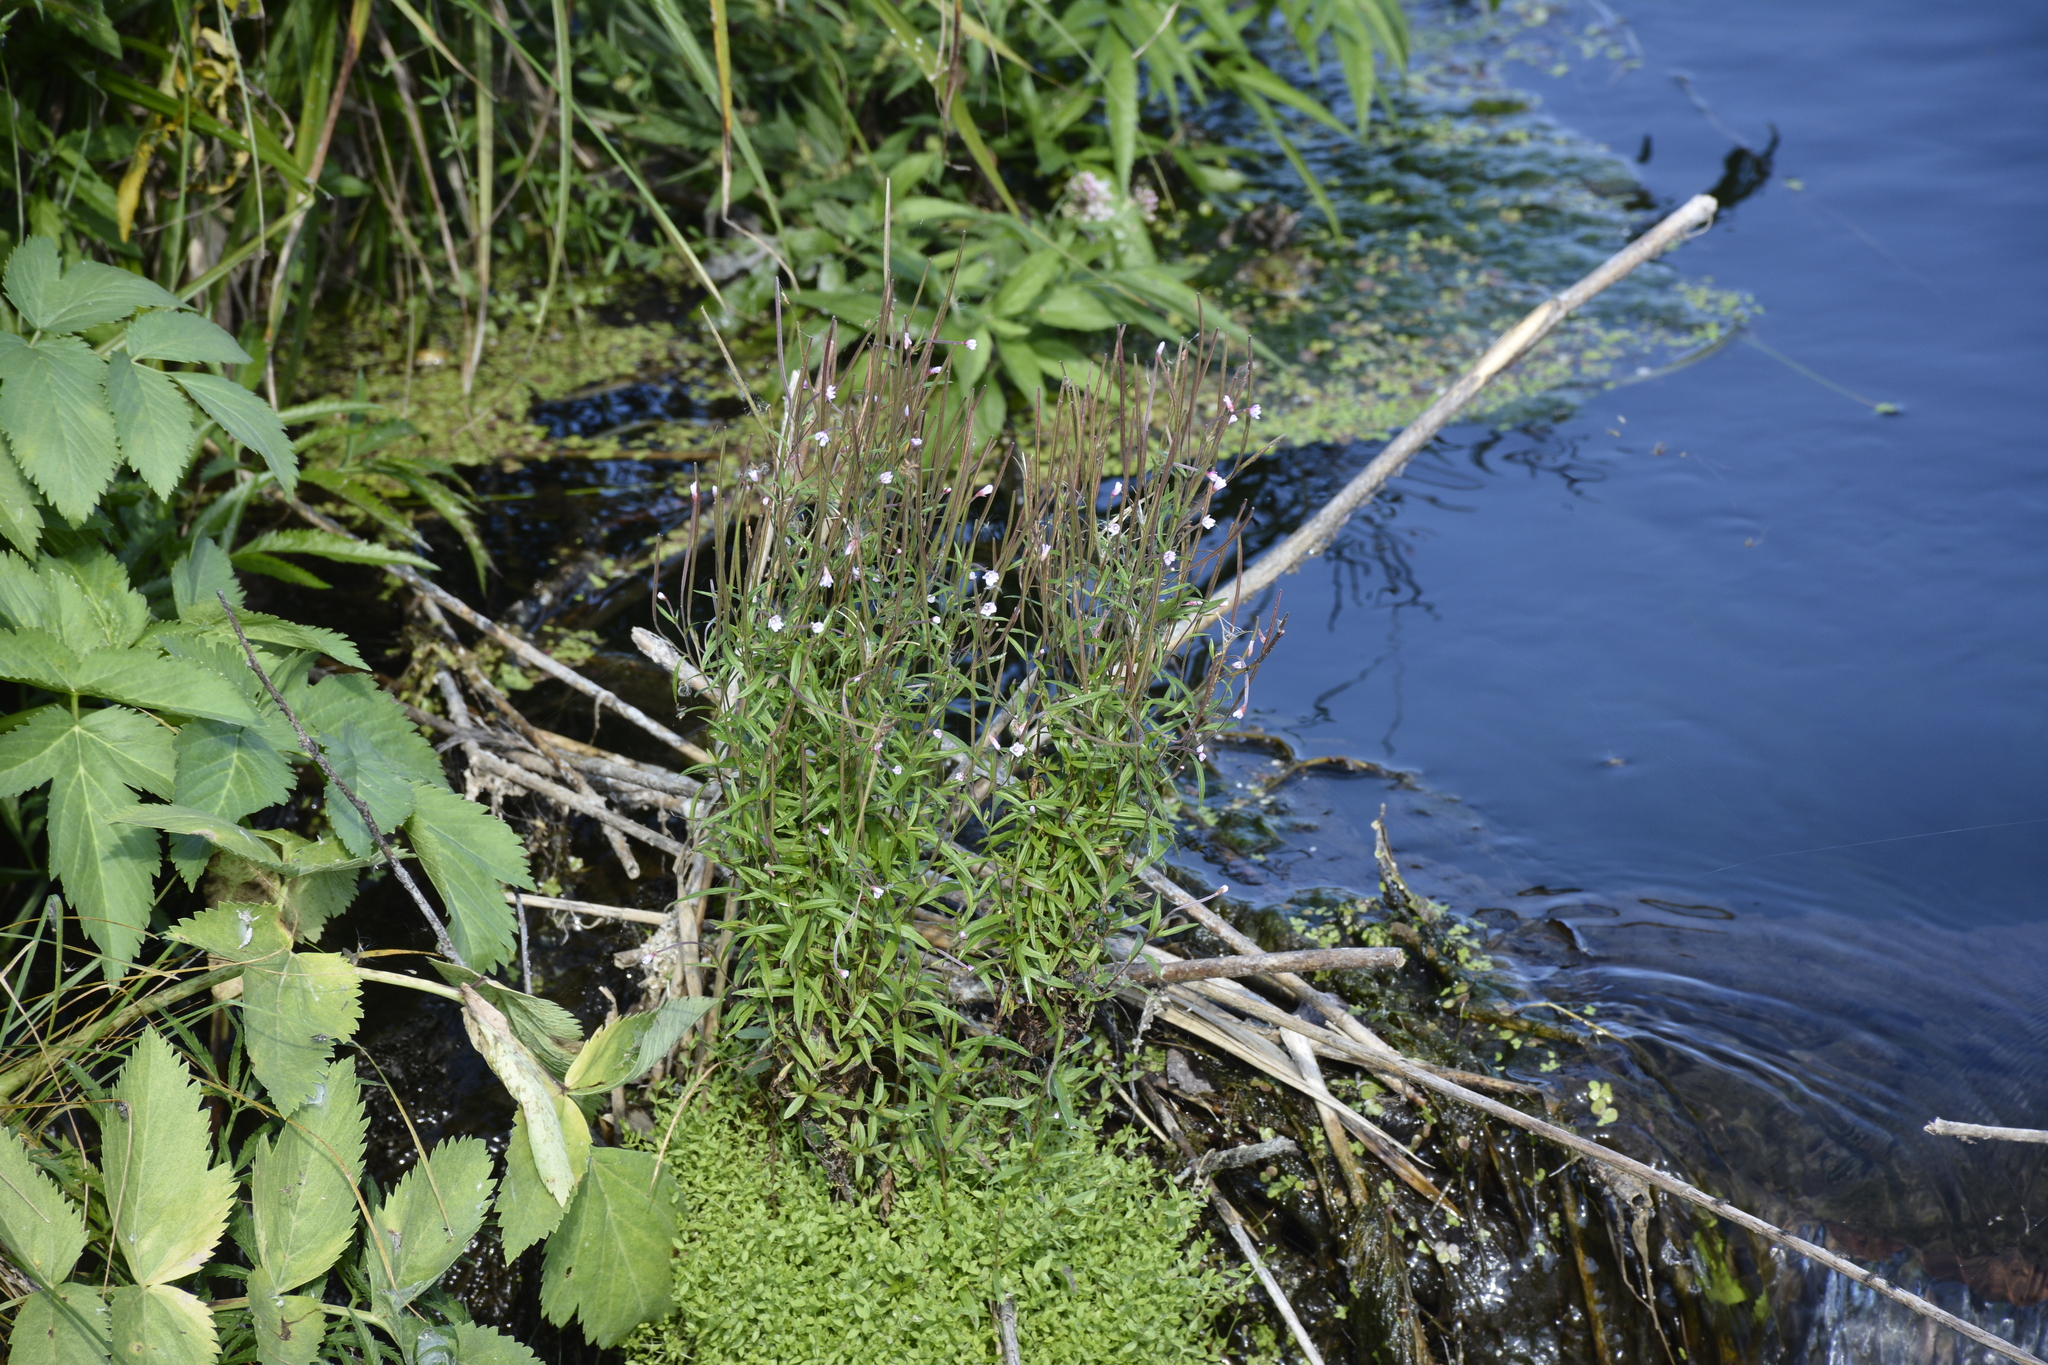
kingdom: Plantae
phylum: Tracheophyta
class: Magnoliopsida
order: Myrtales
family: Onagraceae
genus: Epilobium
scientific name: Epilobium palustre
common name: Marsh willowherb
